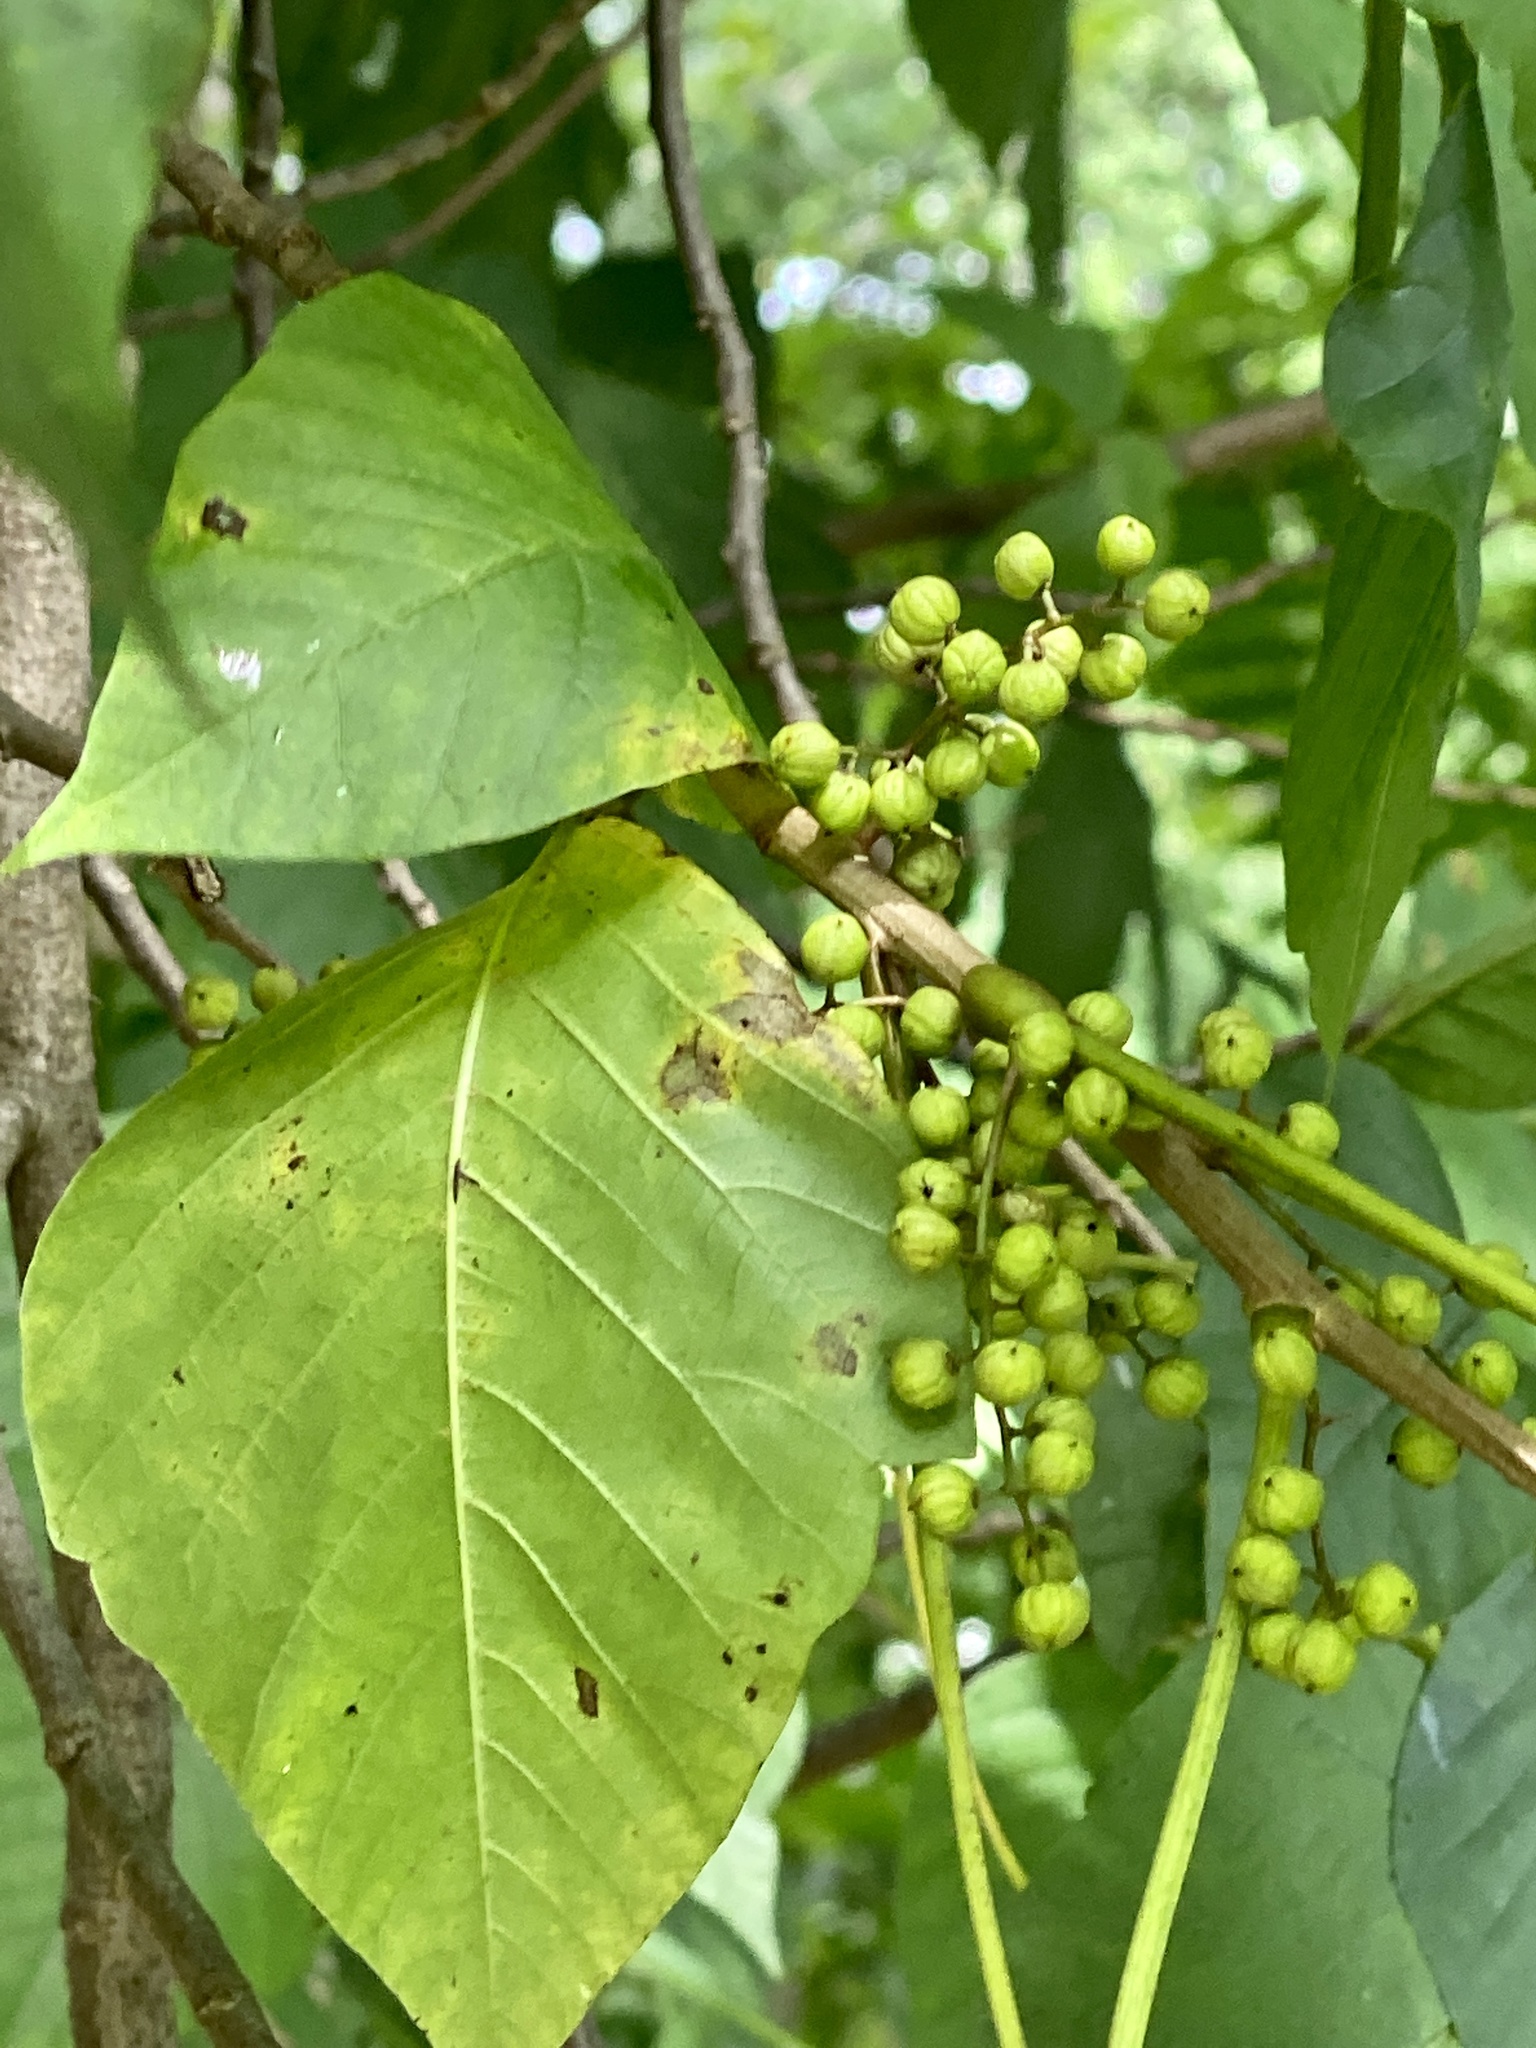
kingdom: Plantae
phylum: Tracheophyta
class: Magnoliopsida
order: Sapindales
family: Anacardiaceae
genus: Toxicodendron
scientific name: Toxicodendron radicans
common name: Poison ivy
